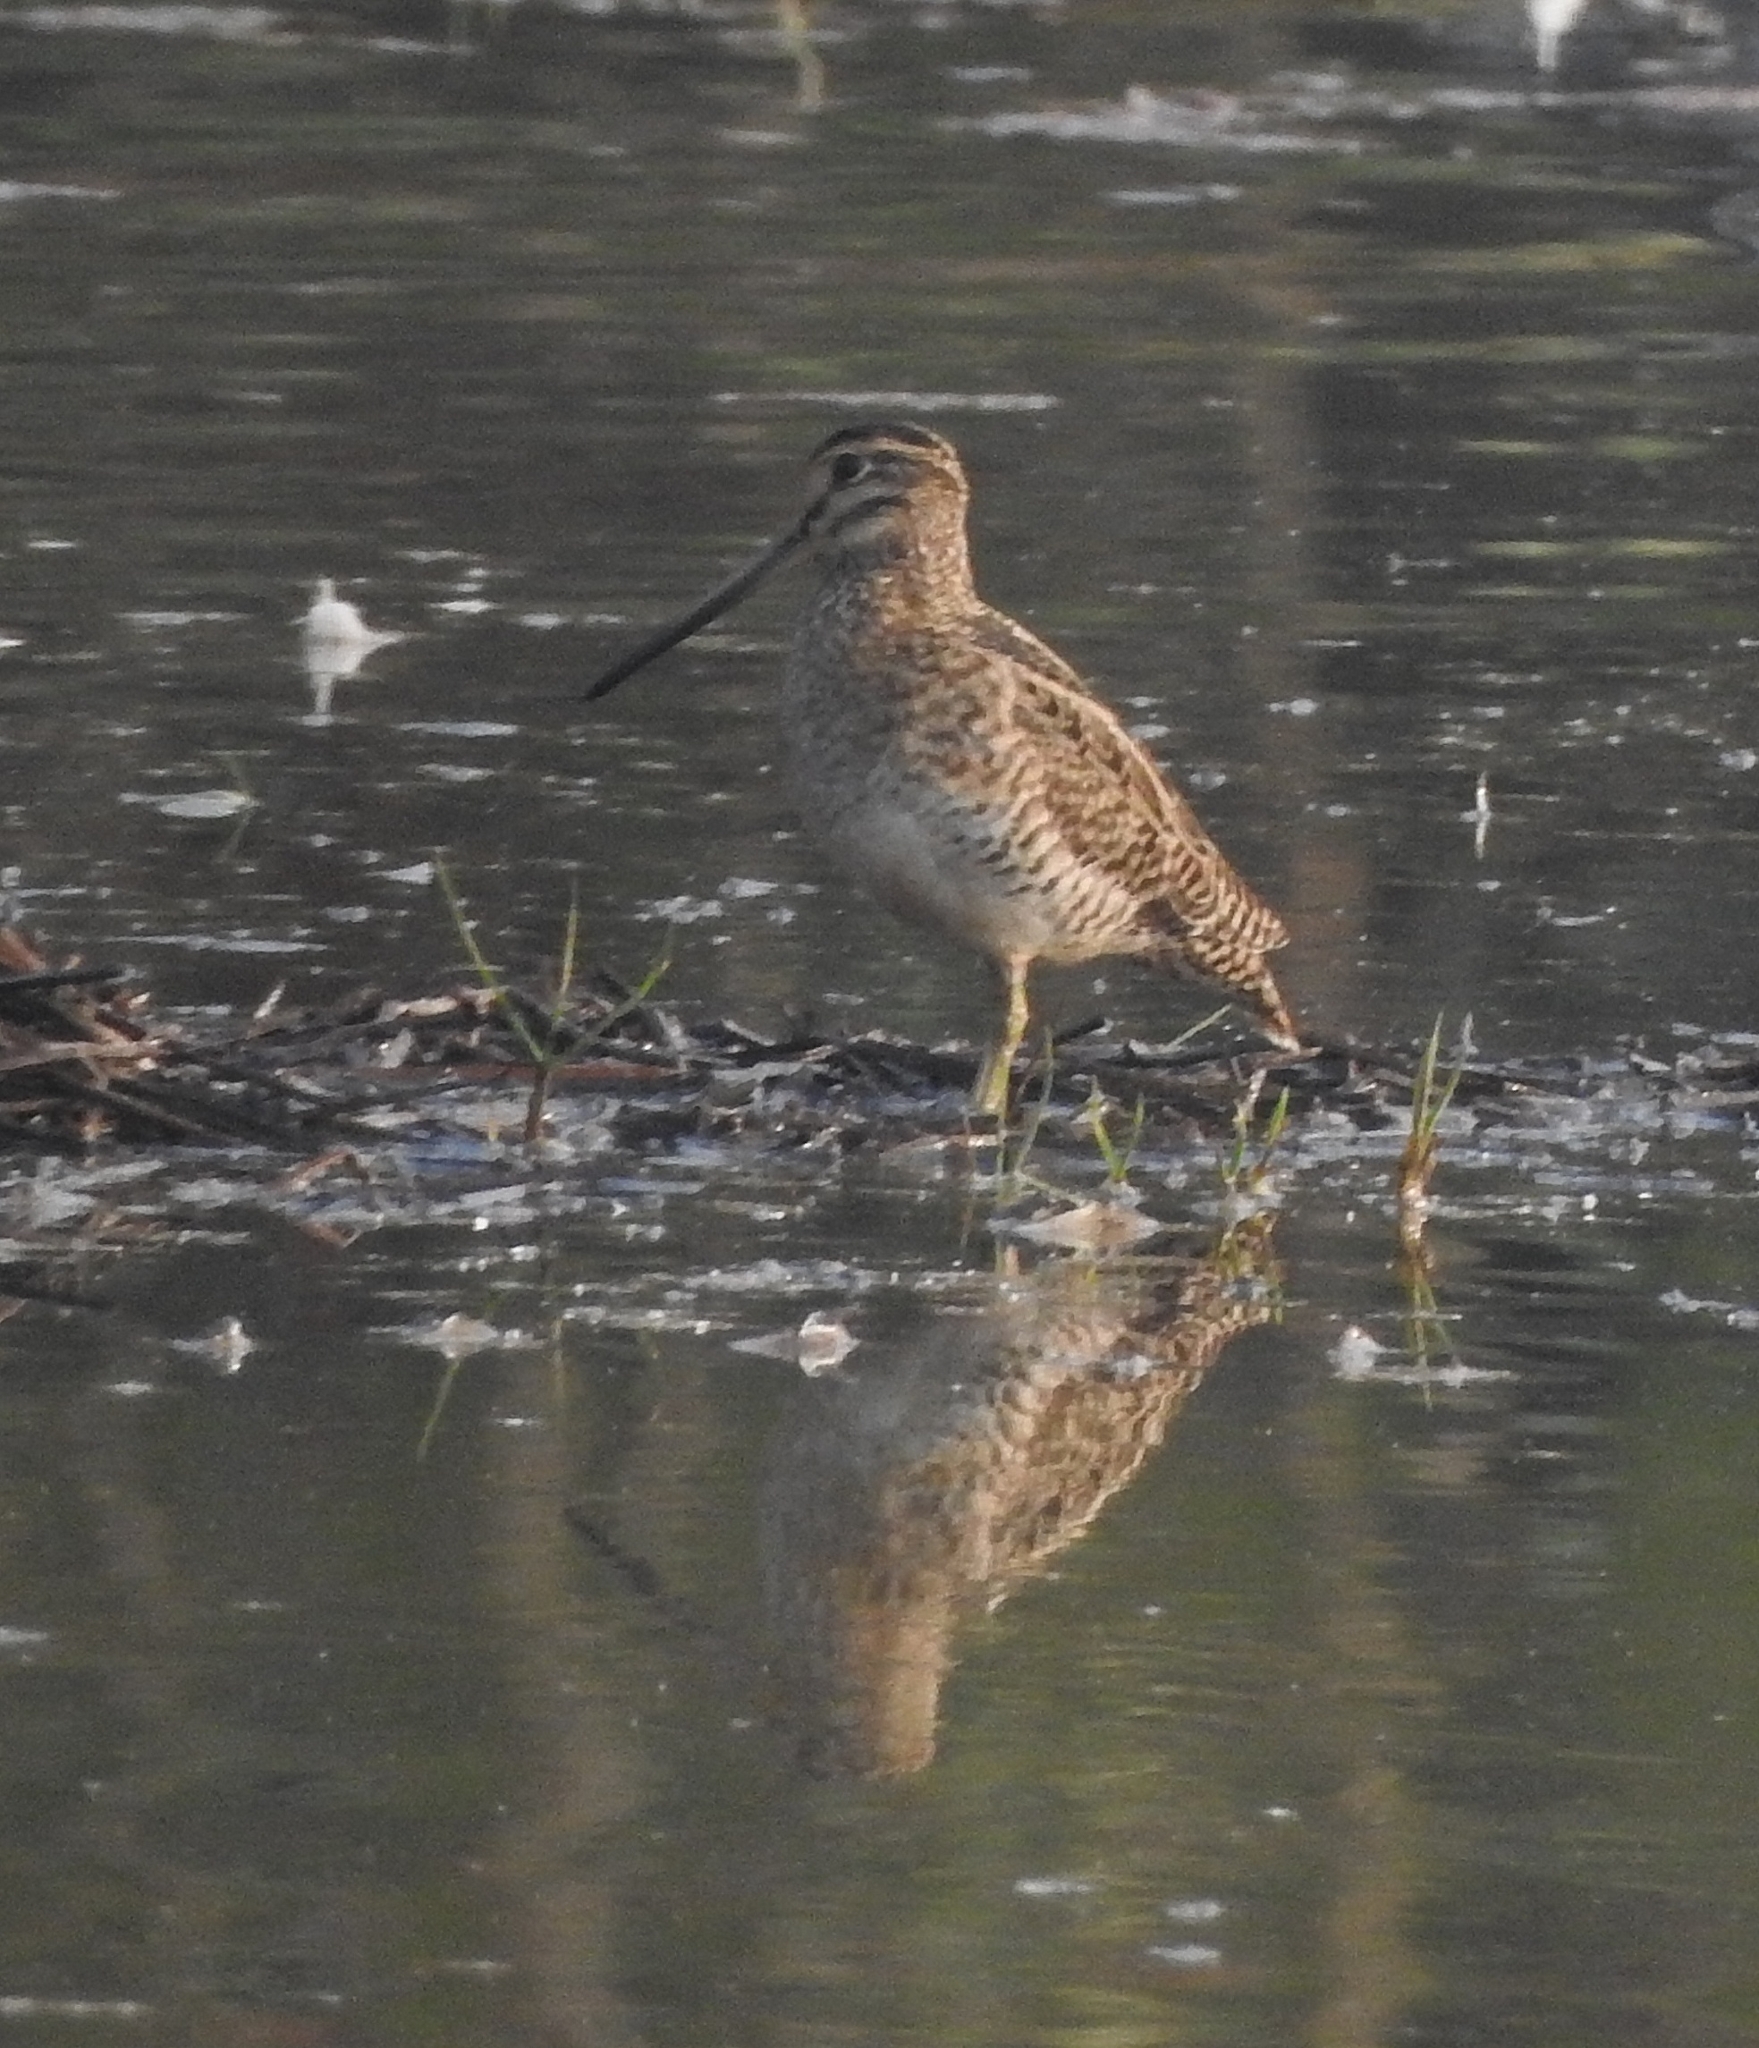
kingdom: Animalia
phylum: Chordata
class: Aves
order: Charadriiformes
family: Scolopacidae
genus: Gallinago
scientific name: Gallinago stenura
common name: Pin-tailed snipe
